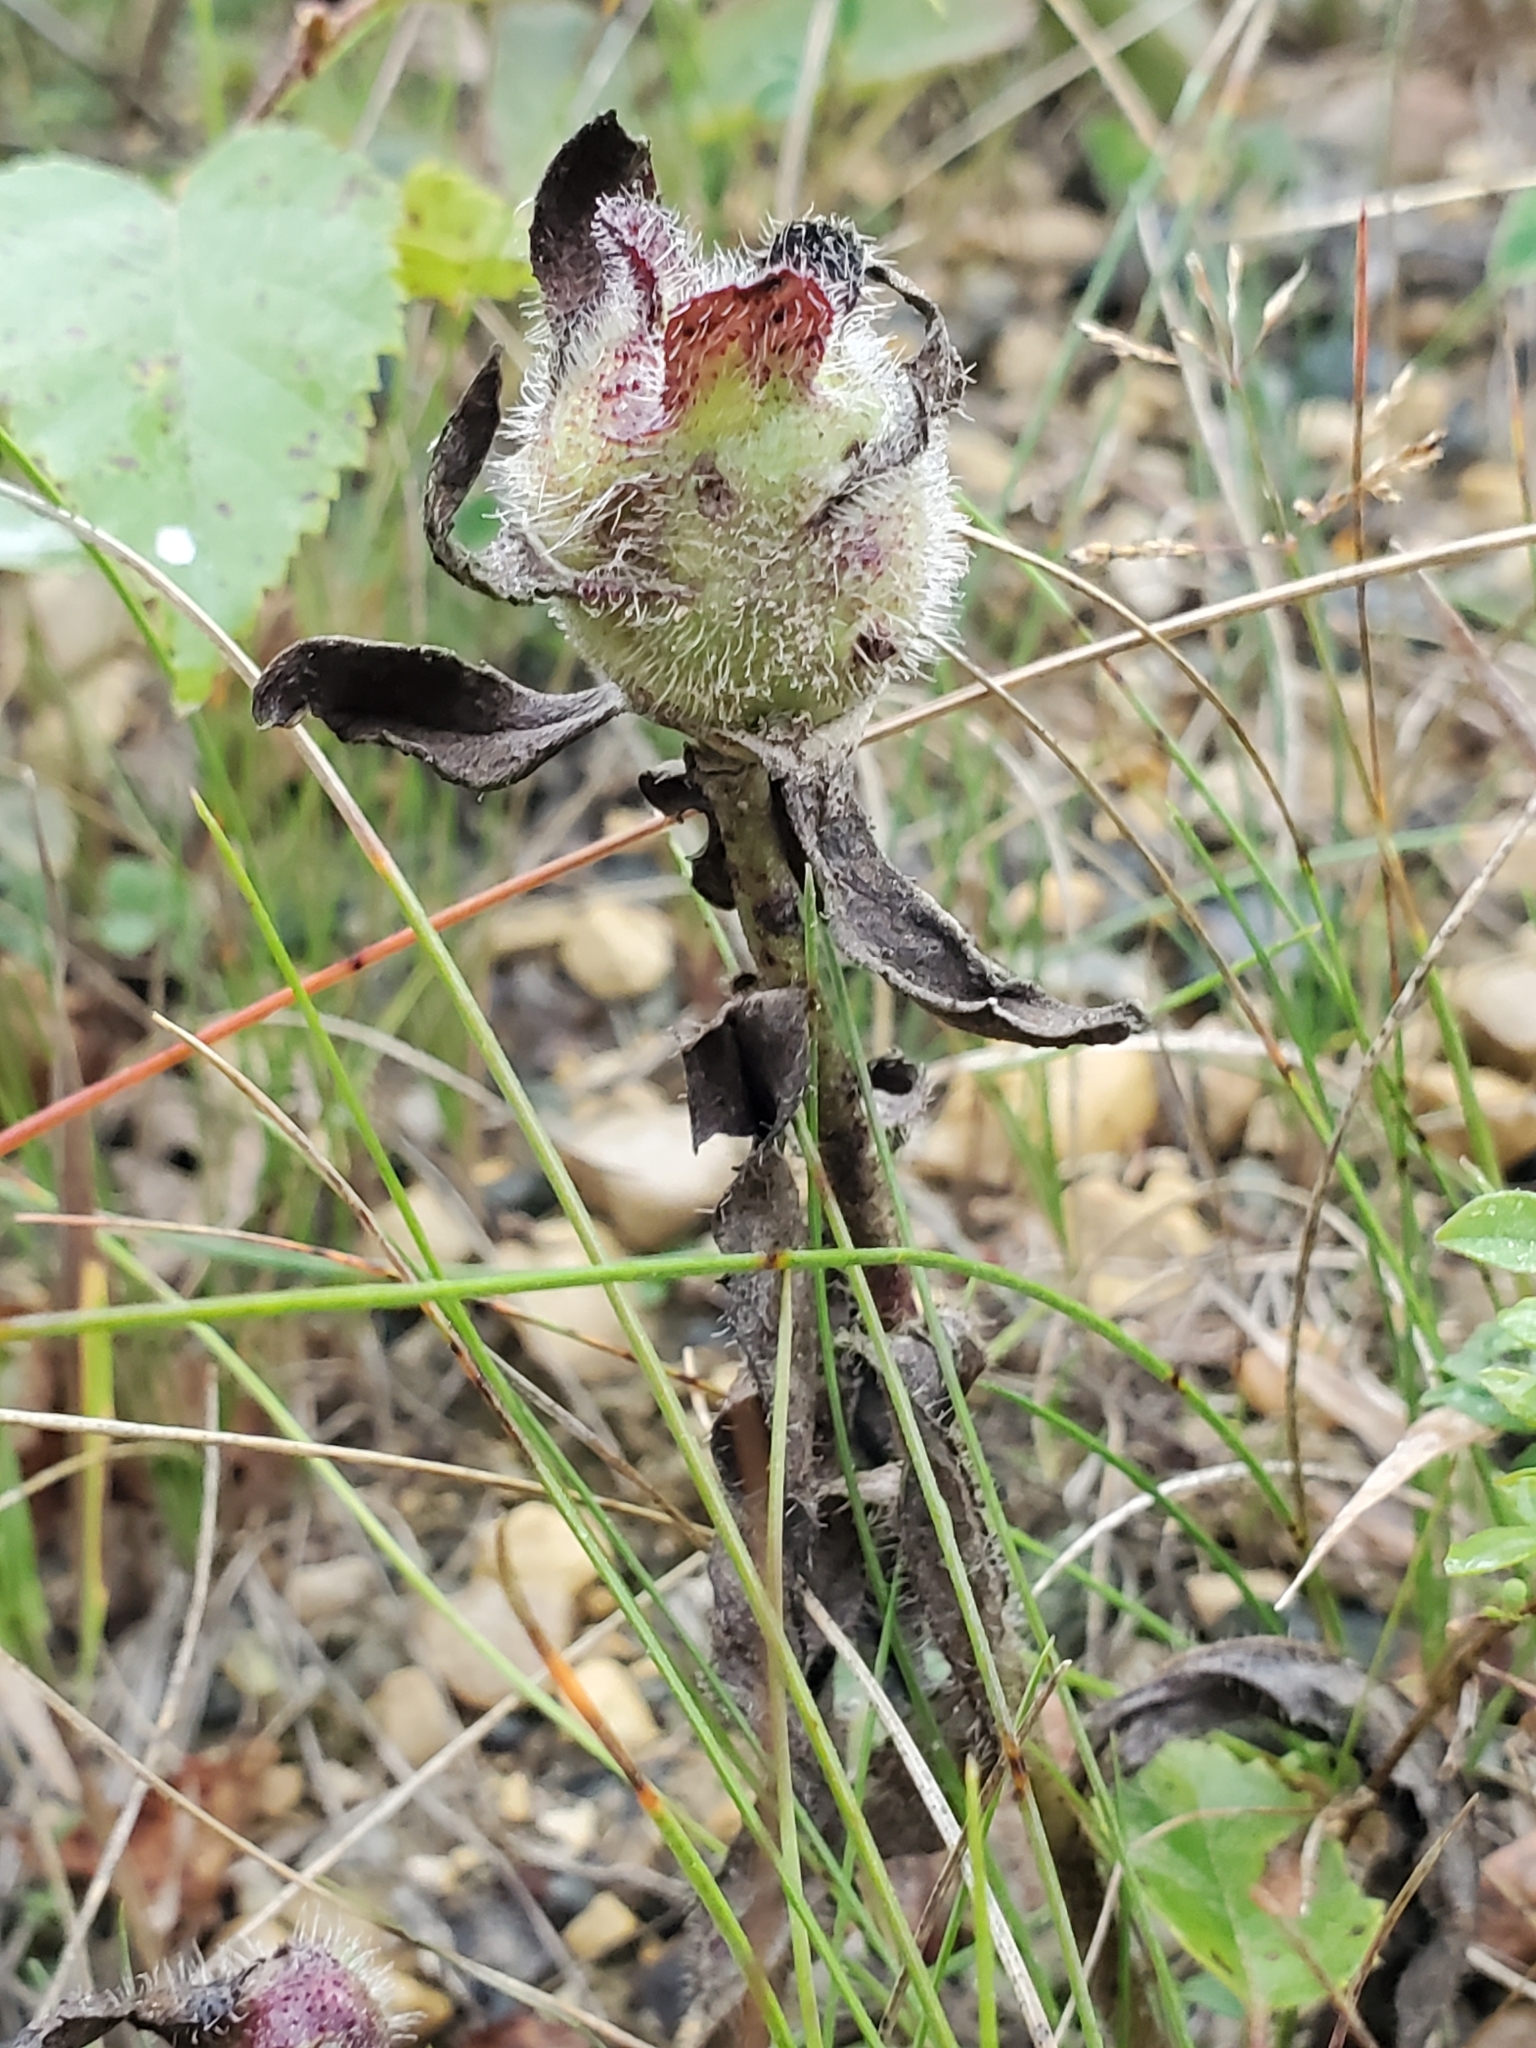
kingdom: Animalia
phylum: Arthropoda
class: Insecta
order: Hymenoptera
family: Cynipidae
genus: Aulacidea
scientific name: Aulacidea hieracii
